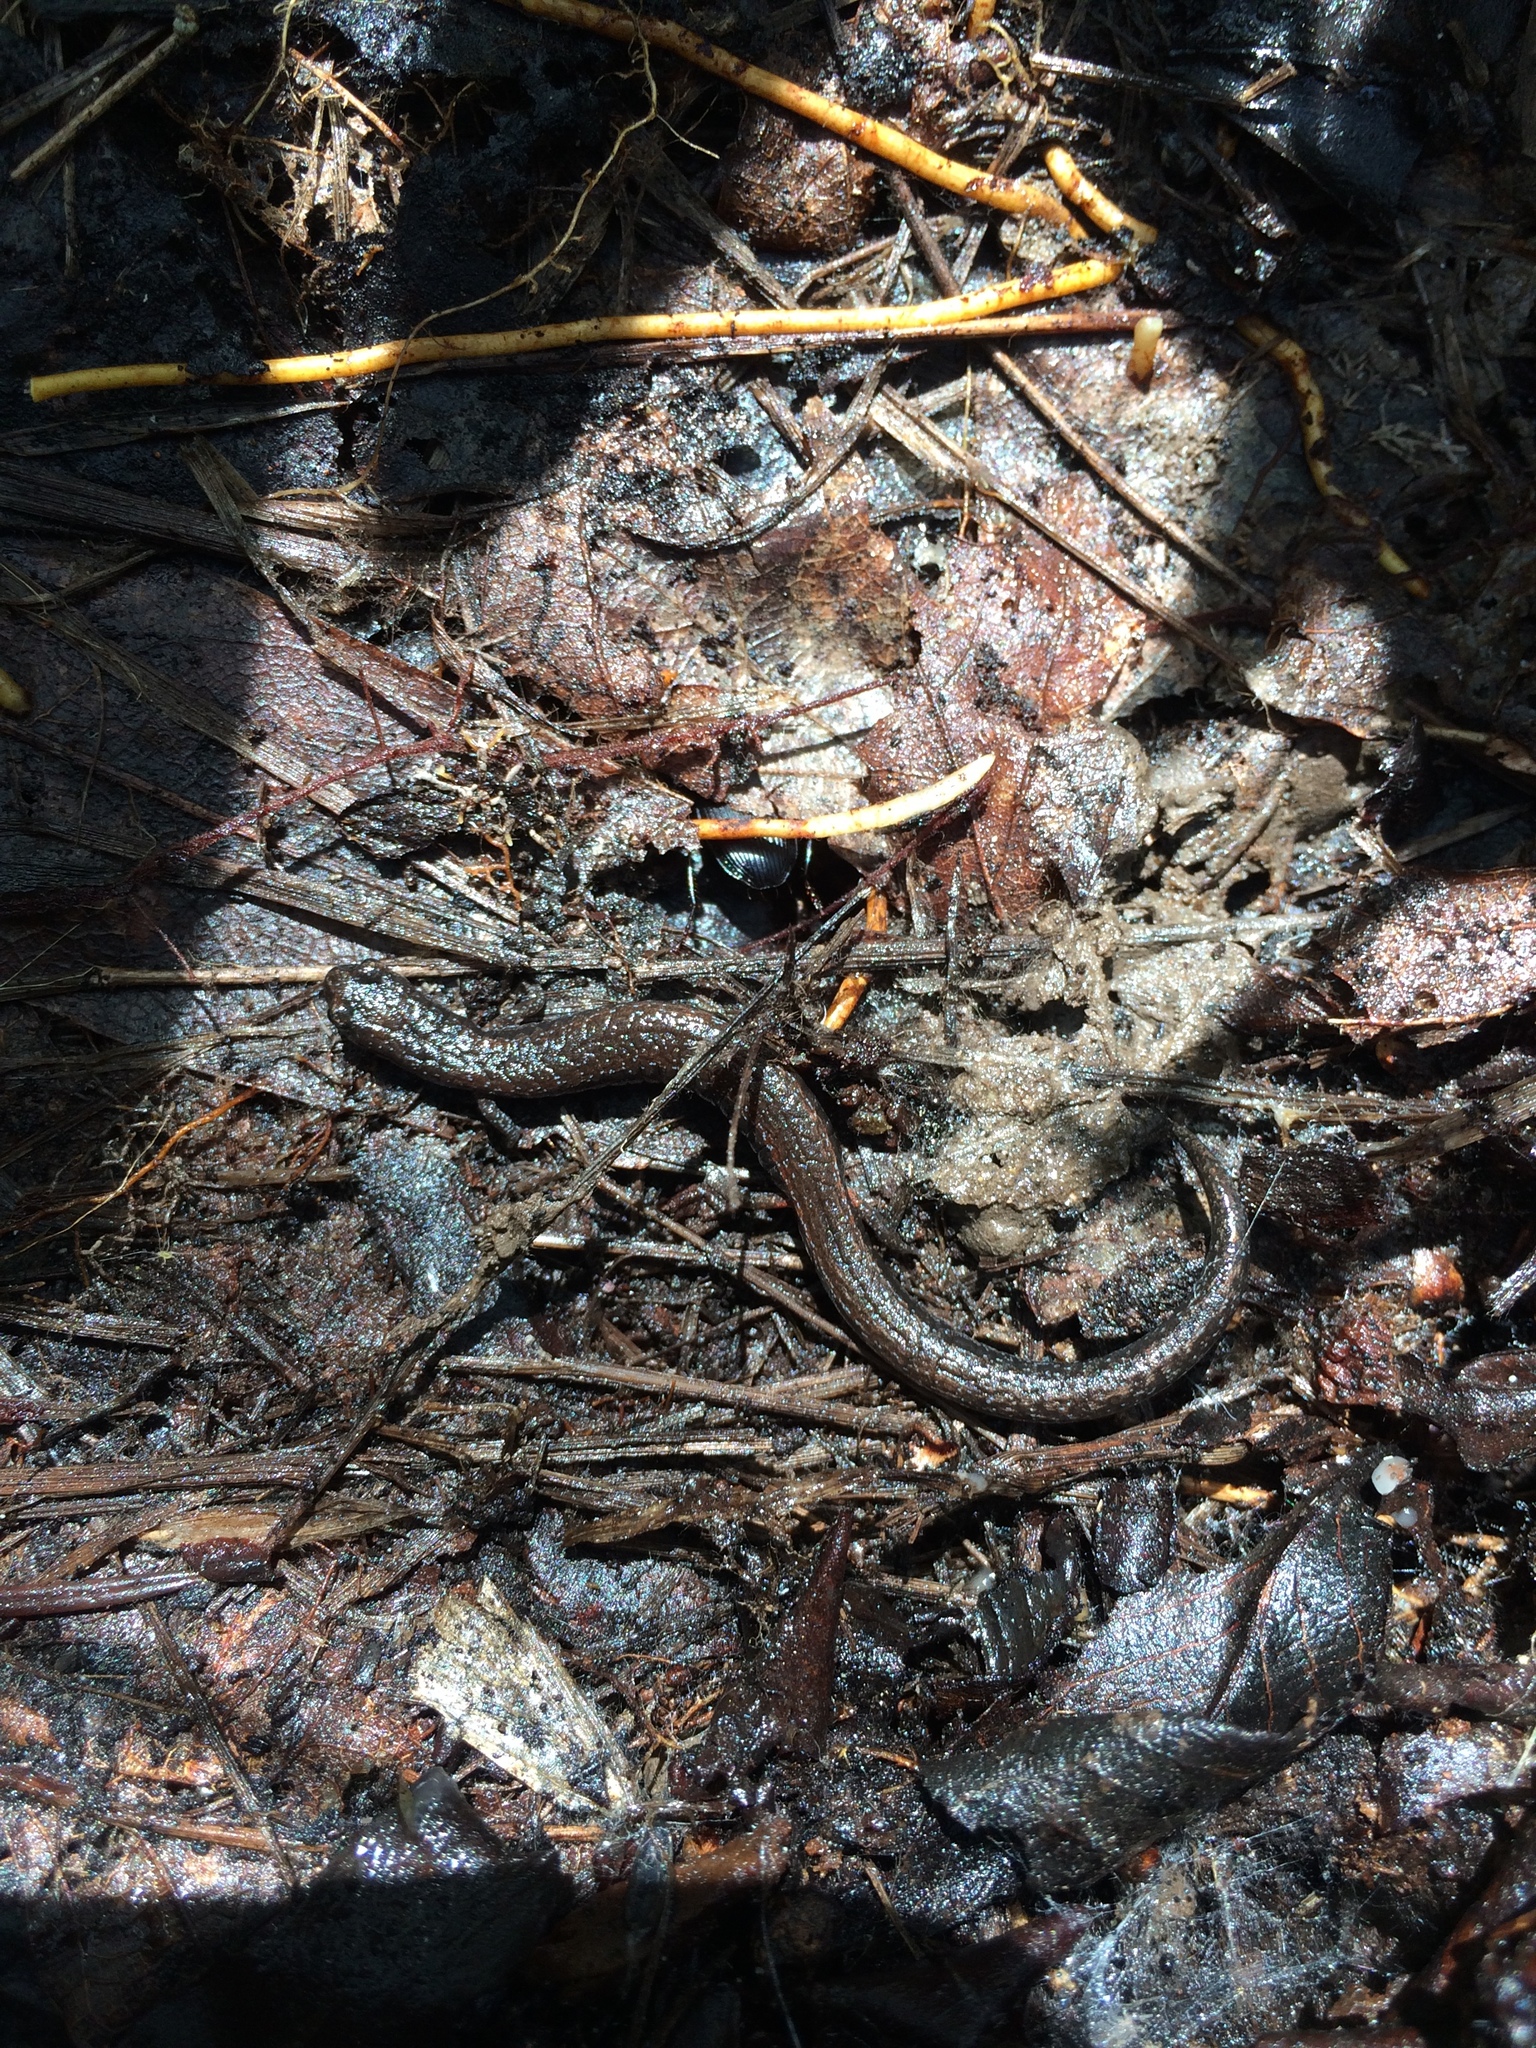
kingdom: Animalia
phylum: Chordata
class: Amphibia
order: Caudata
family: Plethodontidae
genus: Batrachoseps
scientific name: Batrachoseps attenuatus
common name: California slender salamander
